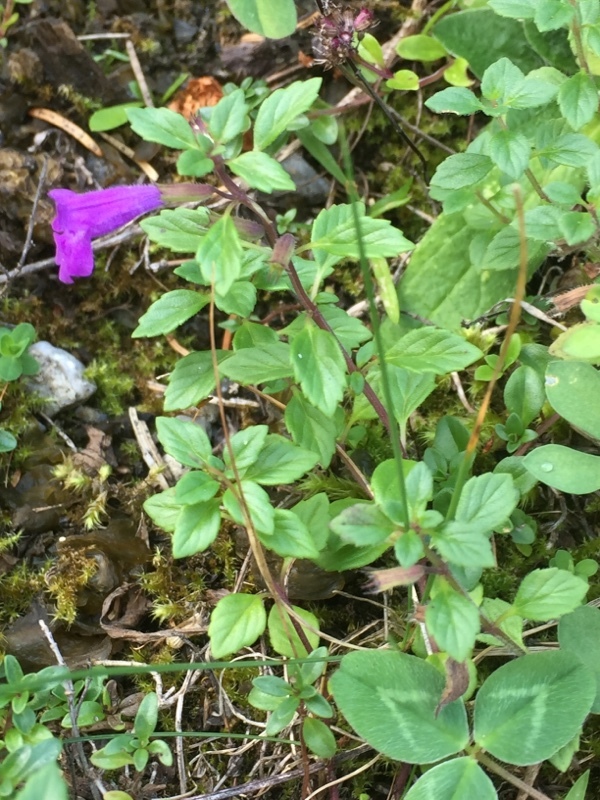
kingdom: Plantae
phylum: Tracheophyta
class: Magnoliopsida
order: Lamiales
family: Lamiaceae
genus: Clinopodium
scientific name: Clinopodium alpinum
